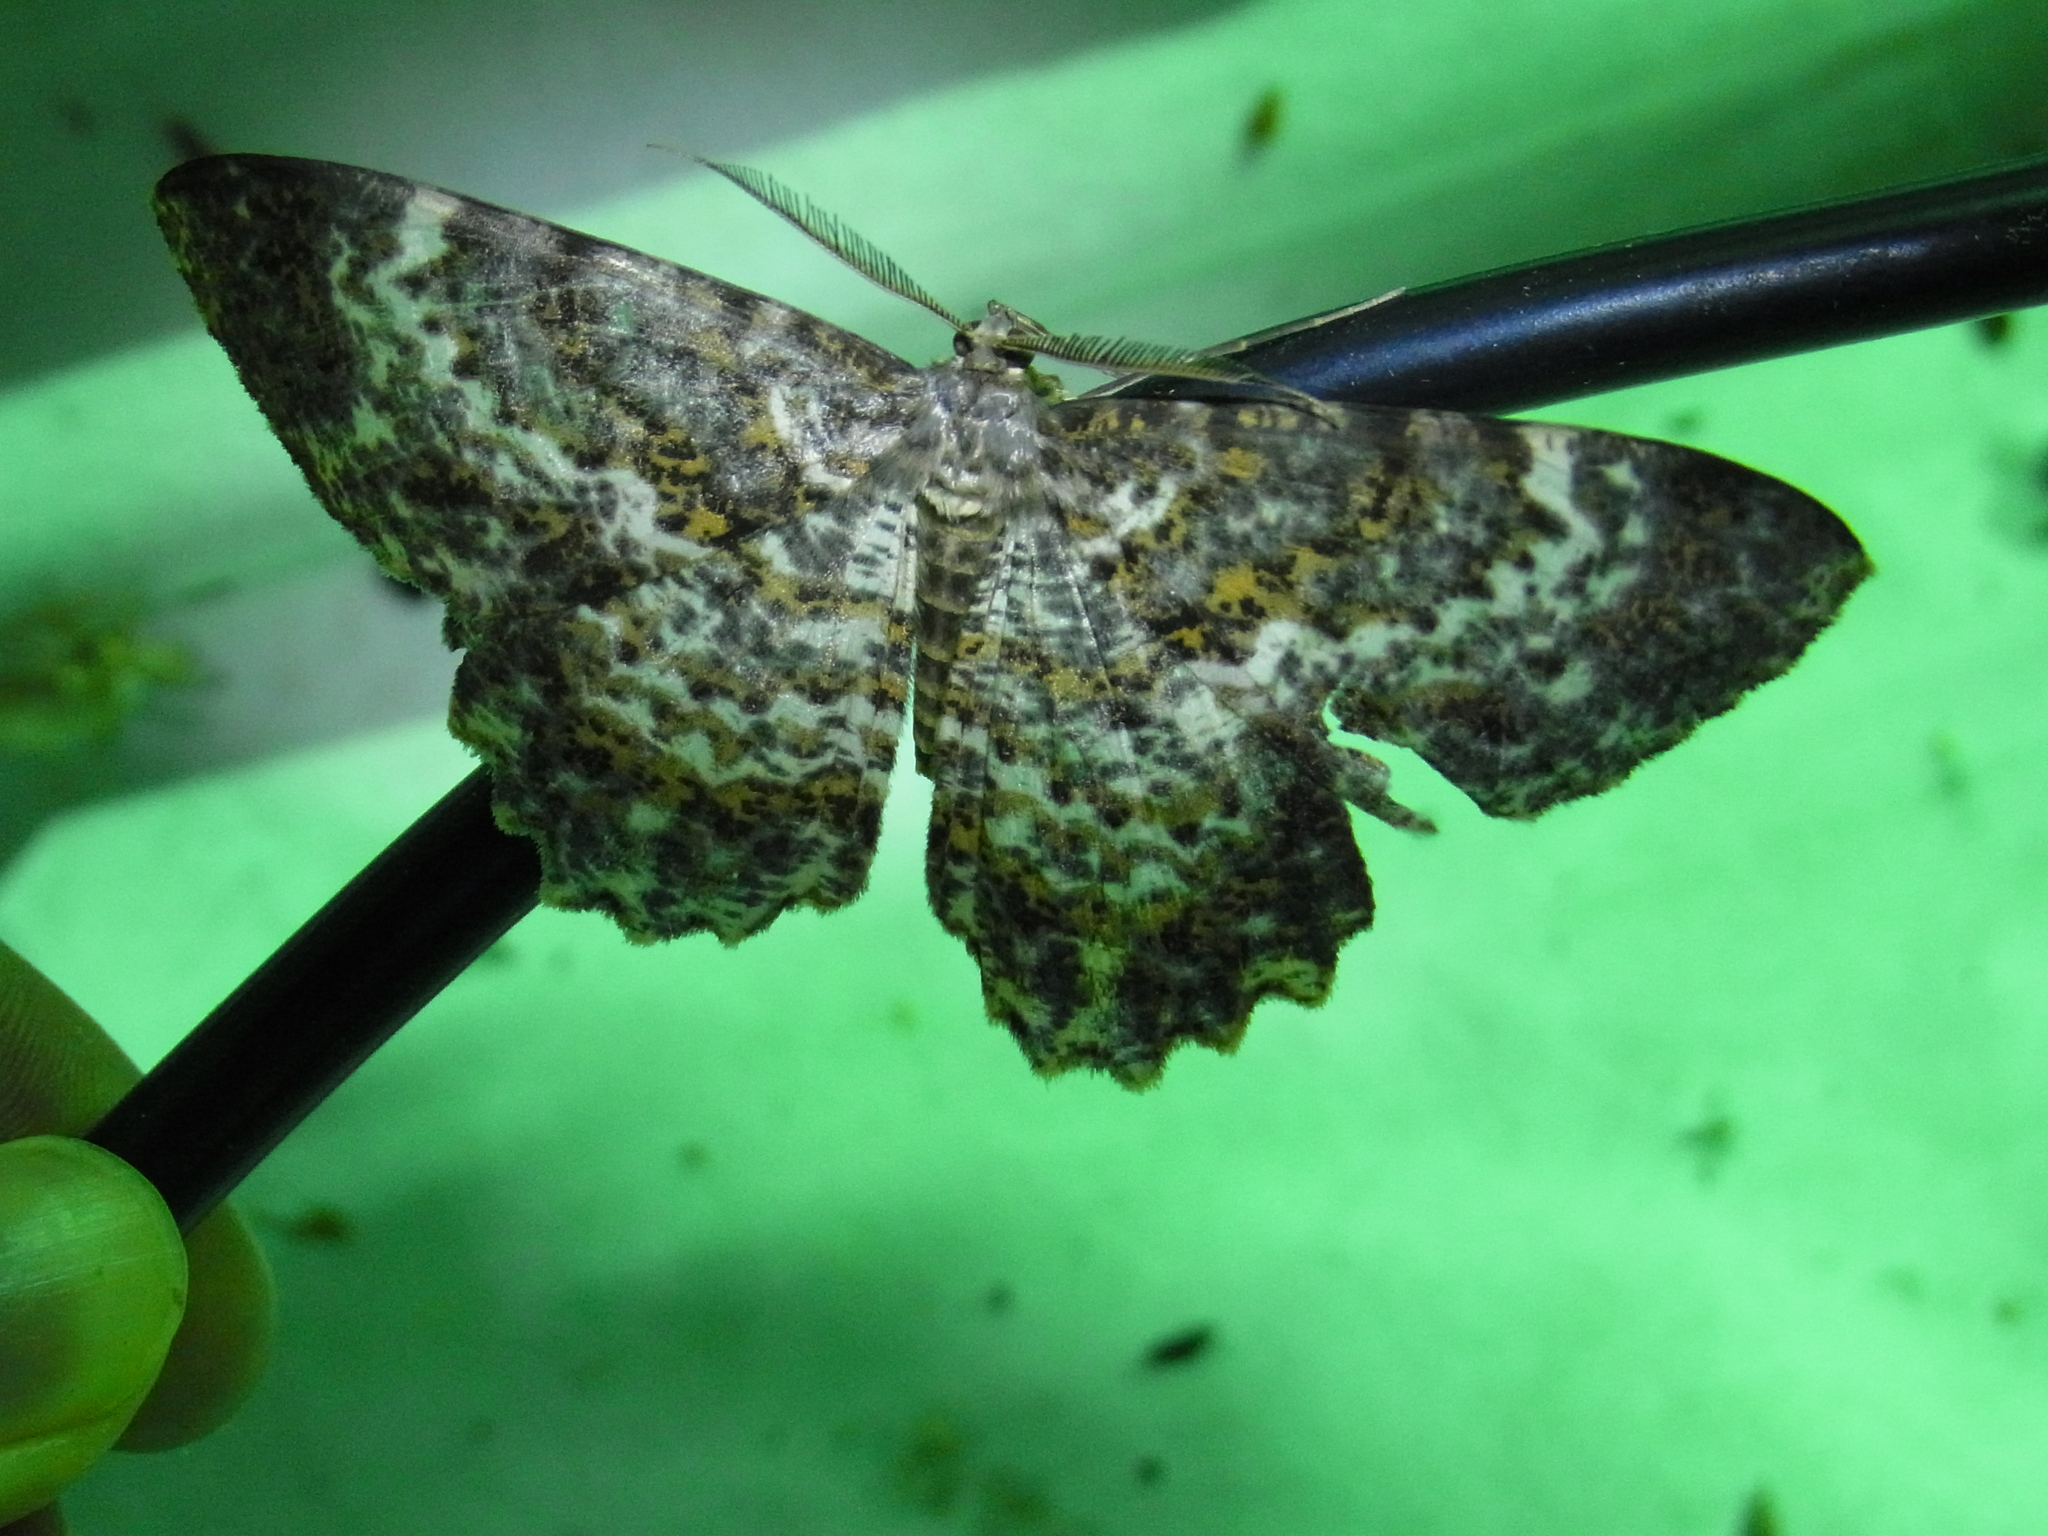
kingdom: Animalia
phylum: Arthropoda
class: Insecta
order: Lepidoptera
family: Geometridae
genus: Amblychia
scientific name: Amblychia insueta
